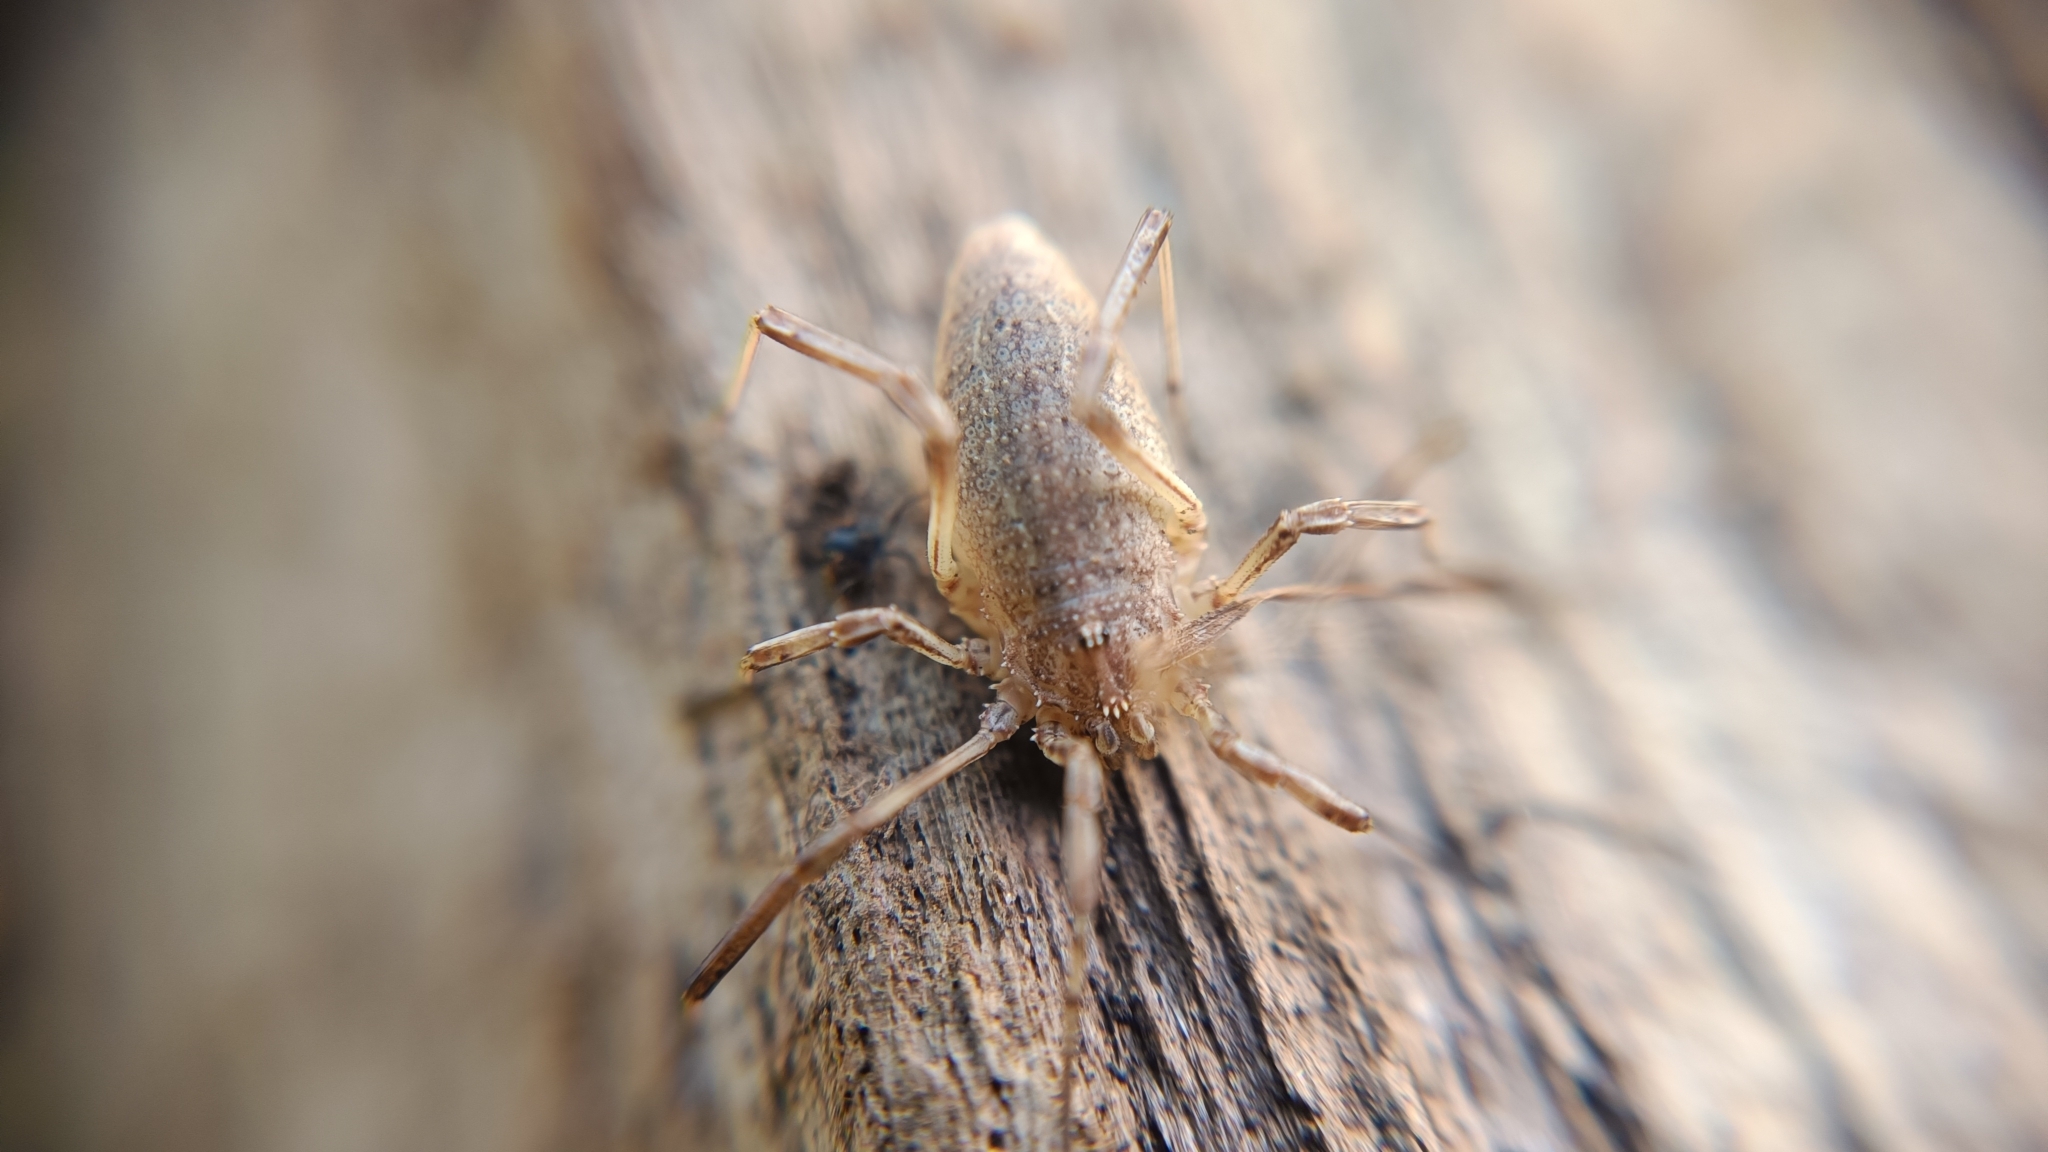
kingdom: Animalia
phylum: Arthropoda
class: Arachnida
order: Opiliones
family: Phalangiidae
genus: Odiellus
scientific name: Odiellus troguloides
